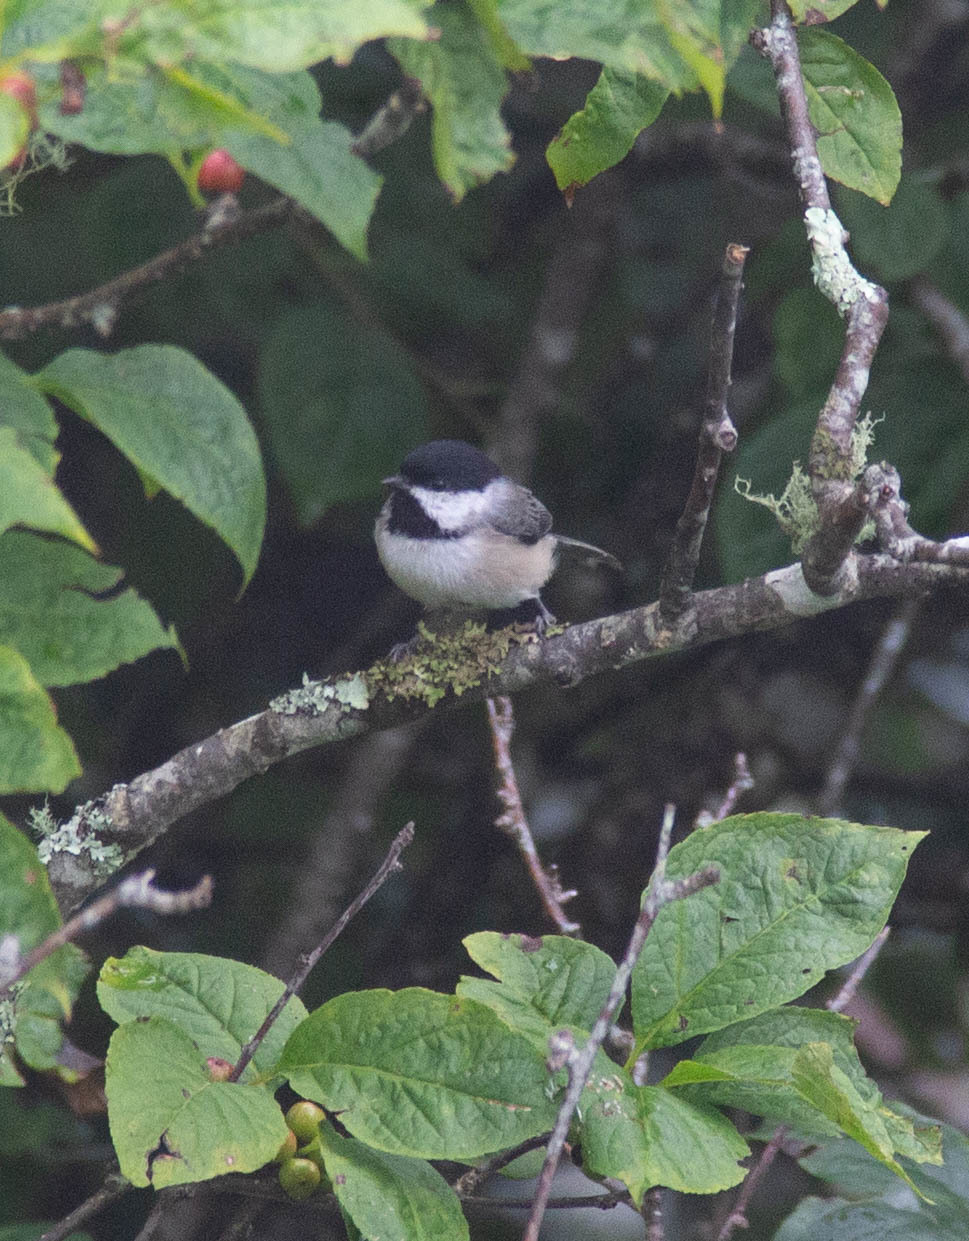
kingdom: Animalia
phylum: Chordata
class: Aves
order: Passeriformes
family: Paridae
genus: Poecile
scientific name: Poecile carolinensis
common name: Carolina chickadee
